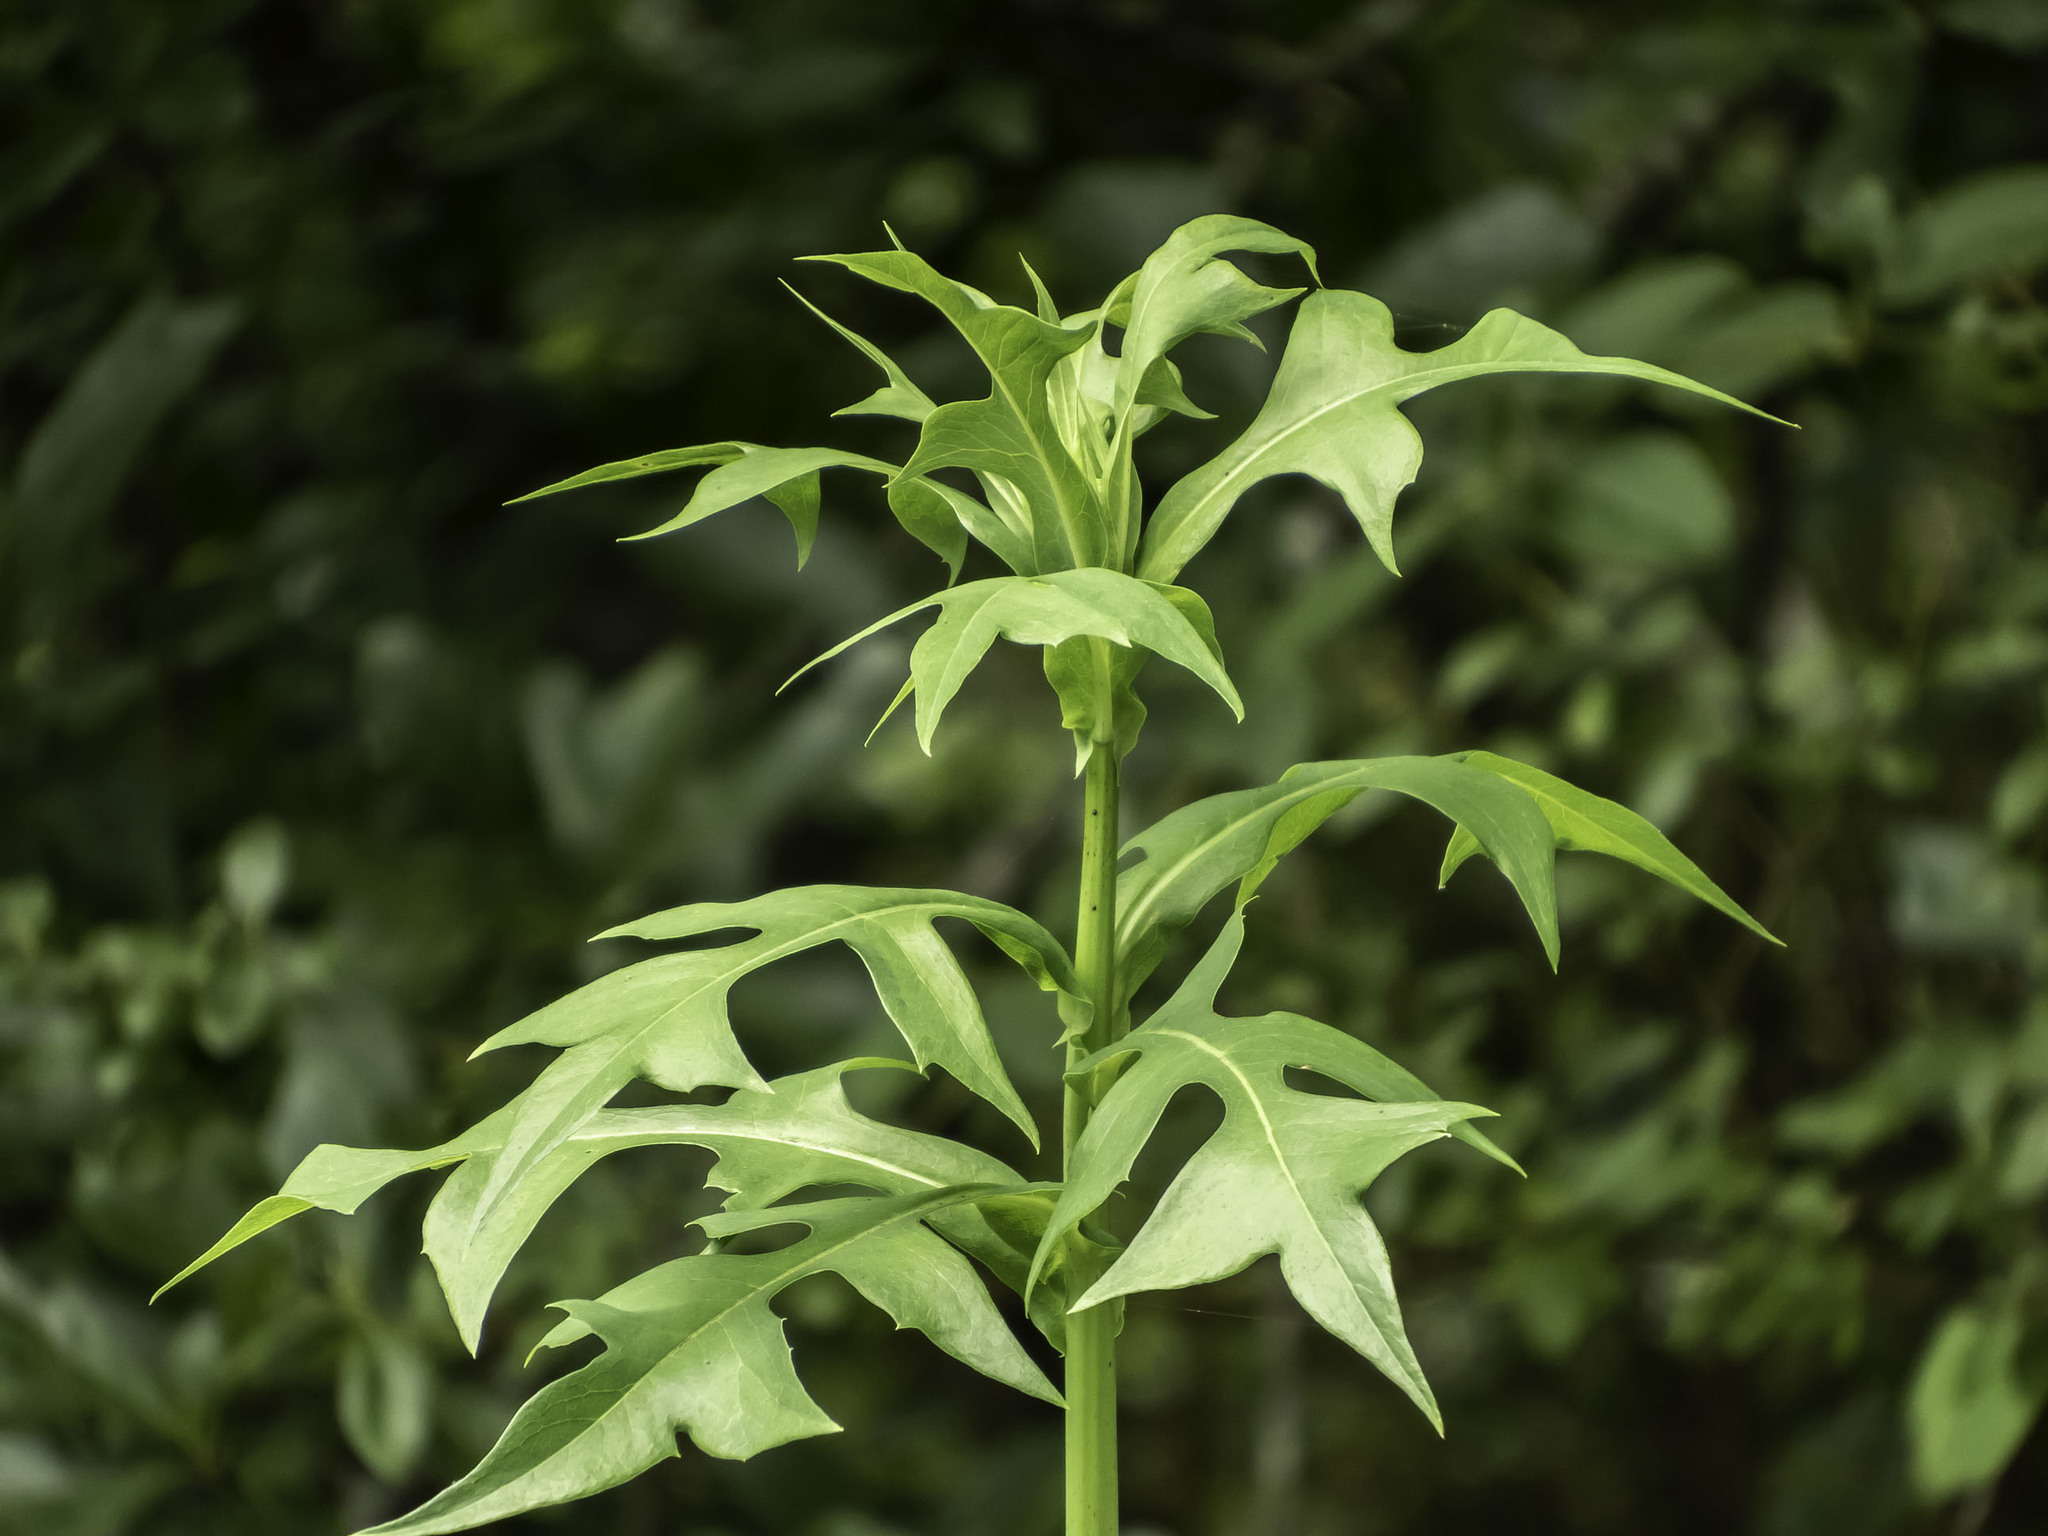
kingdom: Plantae
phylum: Tracheophyta
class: Magnoliopsida
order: Asterales
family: Asteraceae
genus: Lactuca
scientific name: Lactuca canadensis
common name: Canada lettuce
